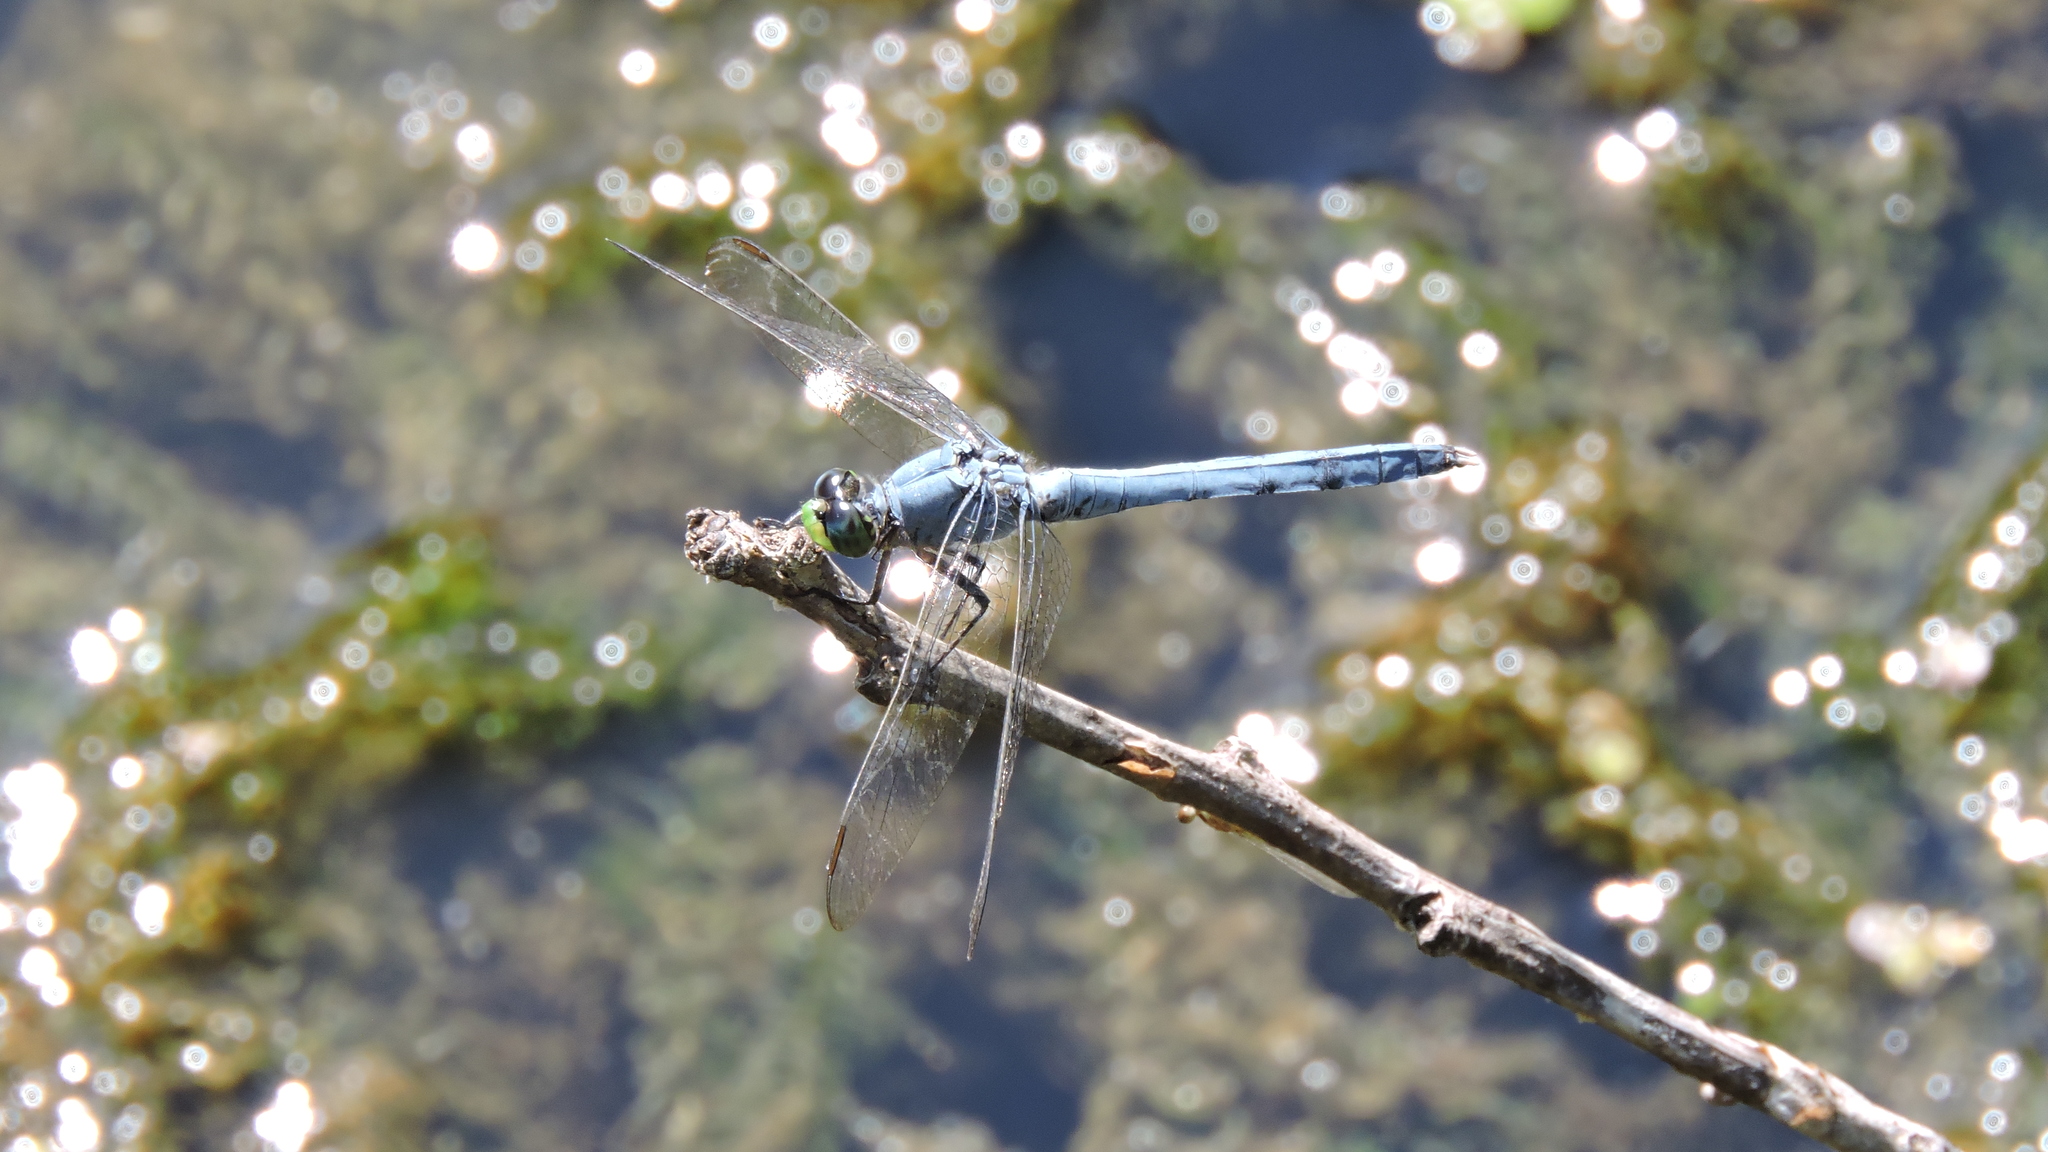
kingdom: Animalia
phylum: Arthropoda
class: Insecta
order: Odonata
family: Libellulidae
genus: Erythemis
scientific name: Erythemis simplicicollis
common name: Eastern pondhawk
